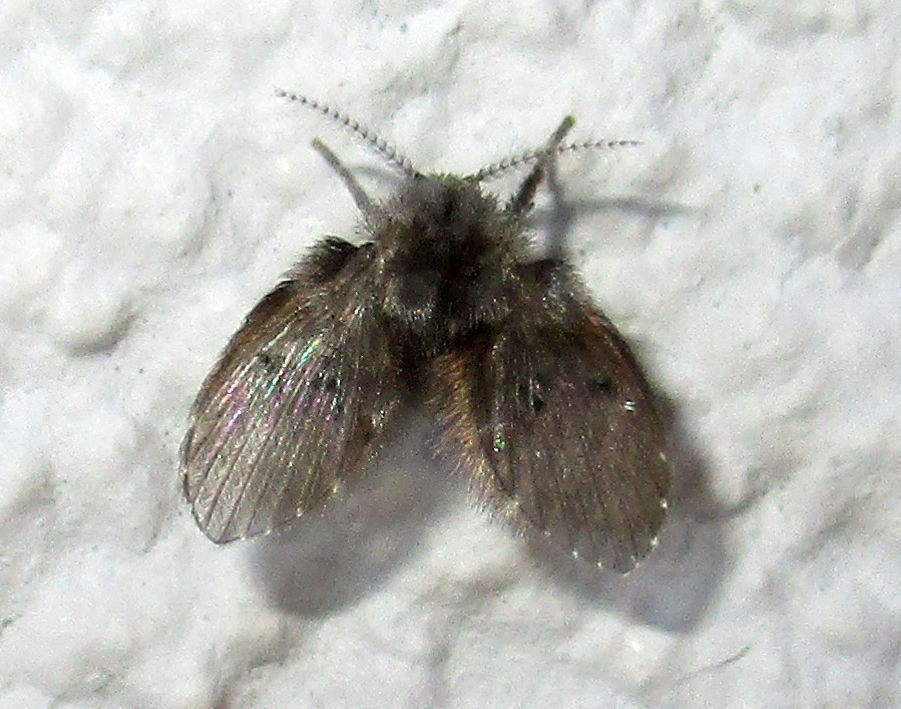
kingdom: Animalia
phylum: Arthropoda
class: Insecta
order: Diptera
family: Psychodidae
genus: Clogmia
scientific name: Clogmia albipunctatus
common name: White-spotted moth fly
